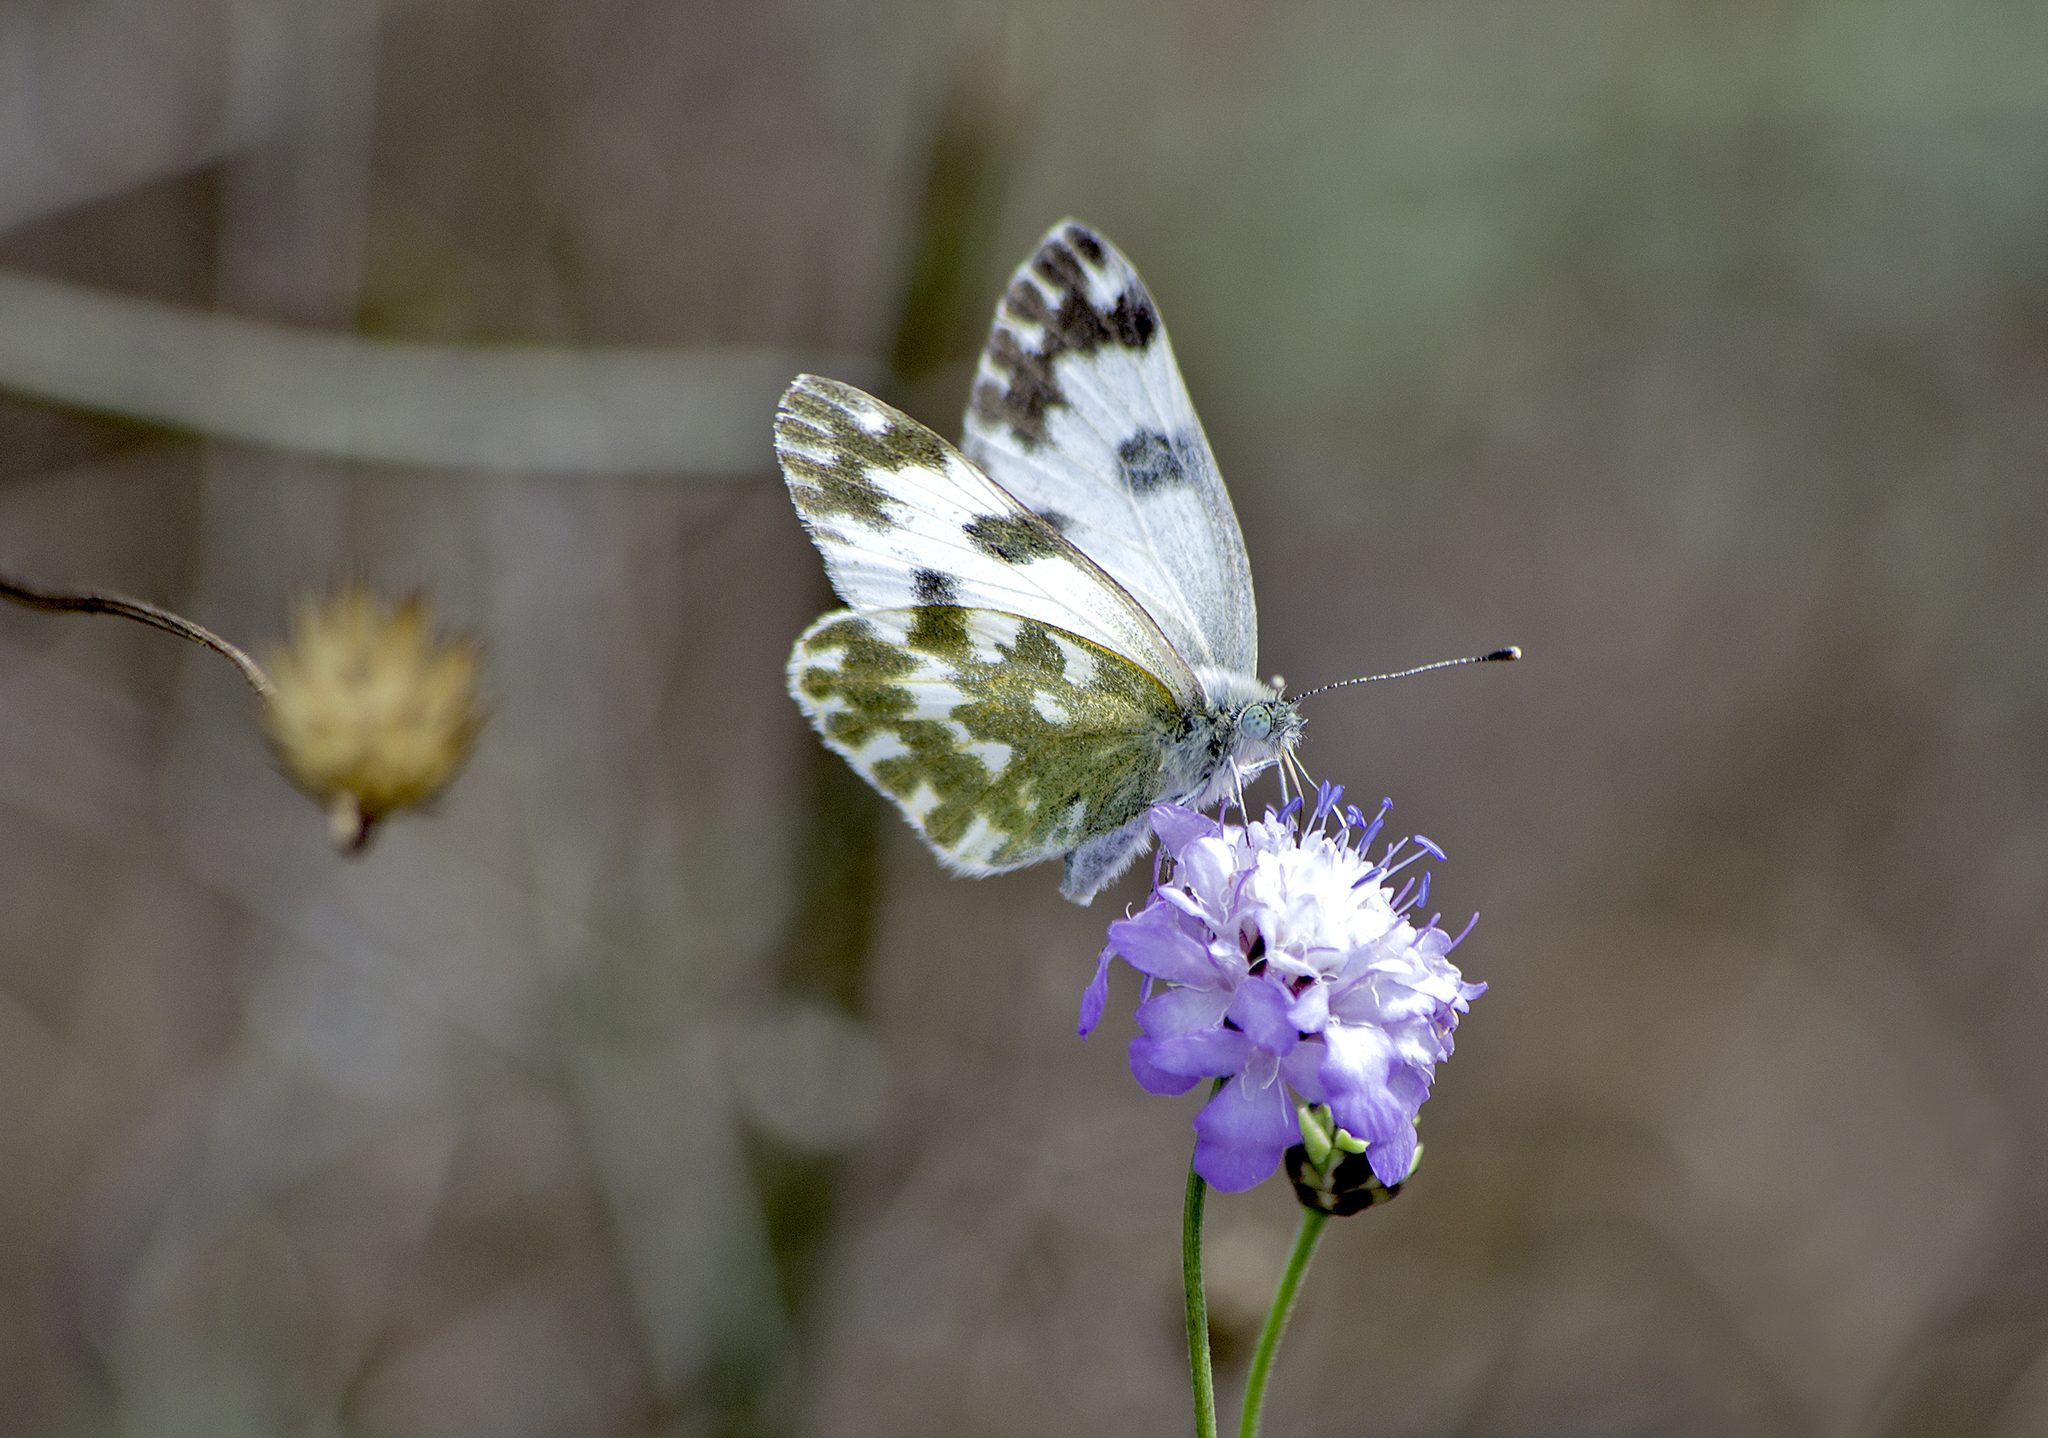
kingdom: Animalia
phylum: Arthropoda
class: Insecta
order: Lepidoptera
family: Pieridae
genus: Pontia
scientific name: Pontia edusa
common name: Eastern bath white
